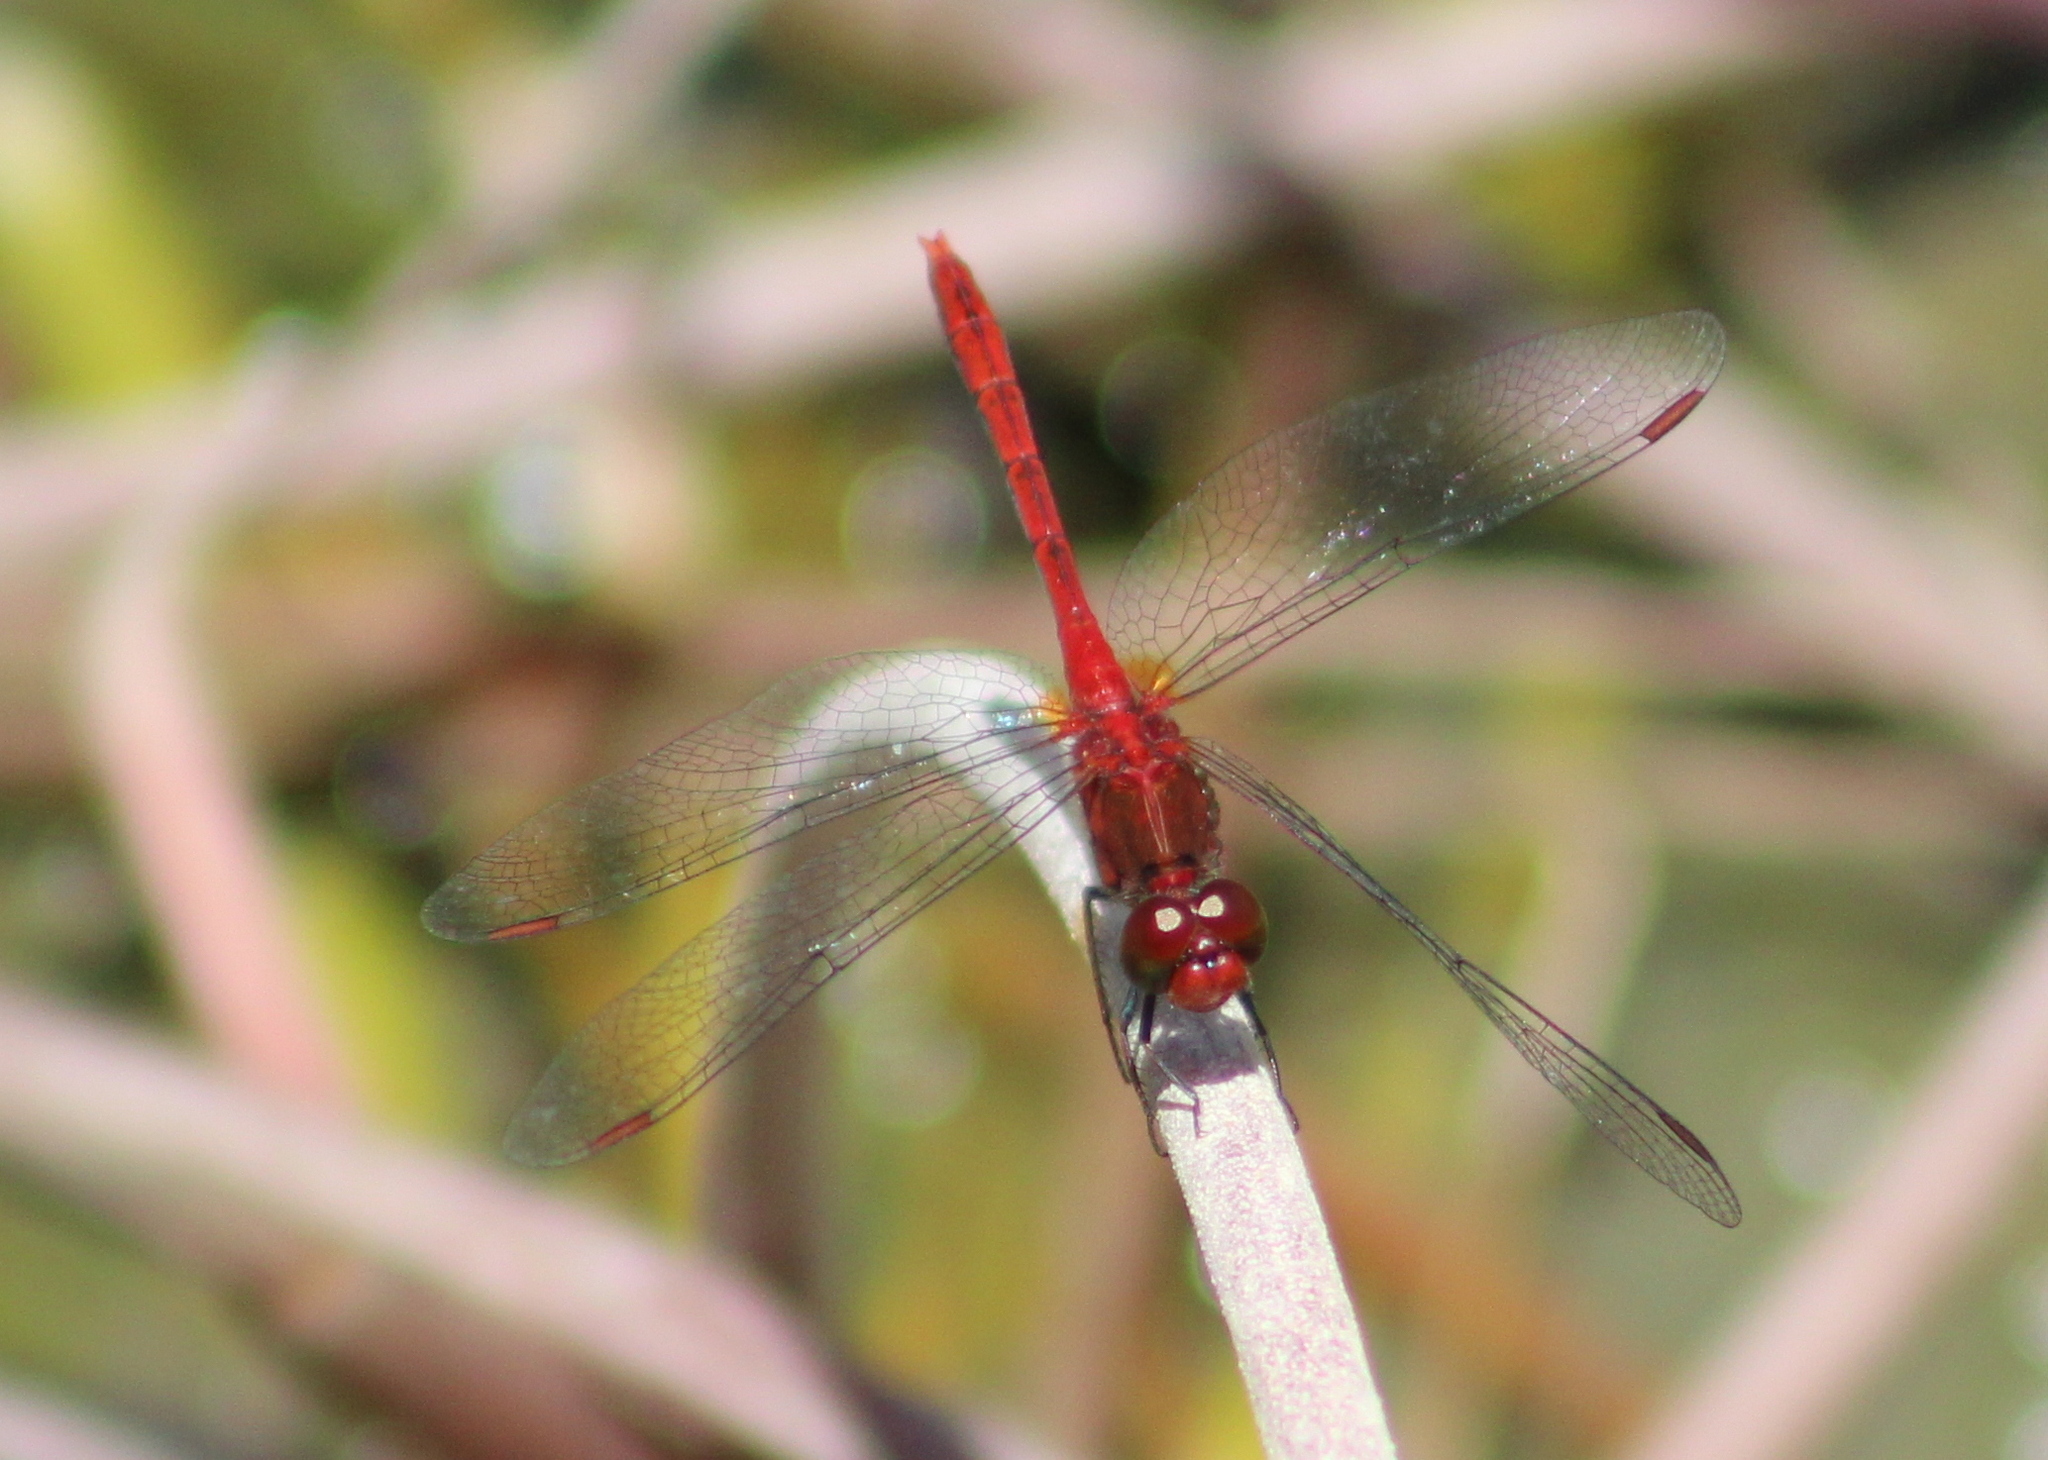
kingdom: Animalia
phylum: Arthropoda
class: Insecta
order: Odonata
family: Libellulidae
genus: Diplacodes
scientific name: Diplacodes bipunctata
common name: Red percher dragonfly
